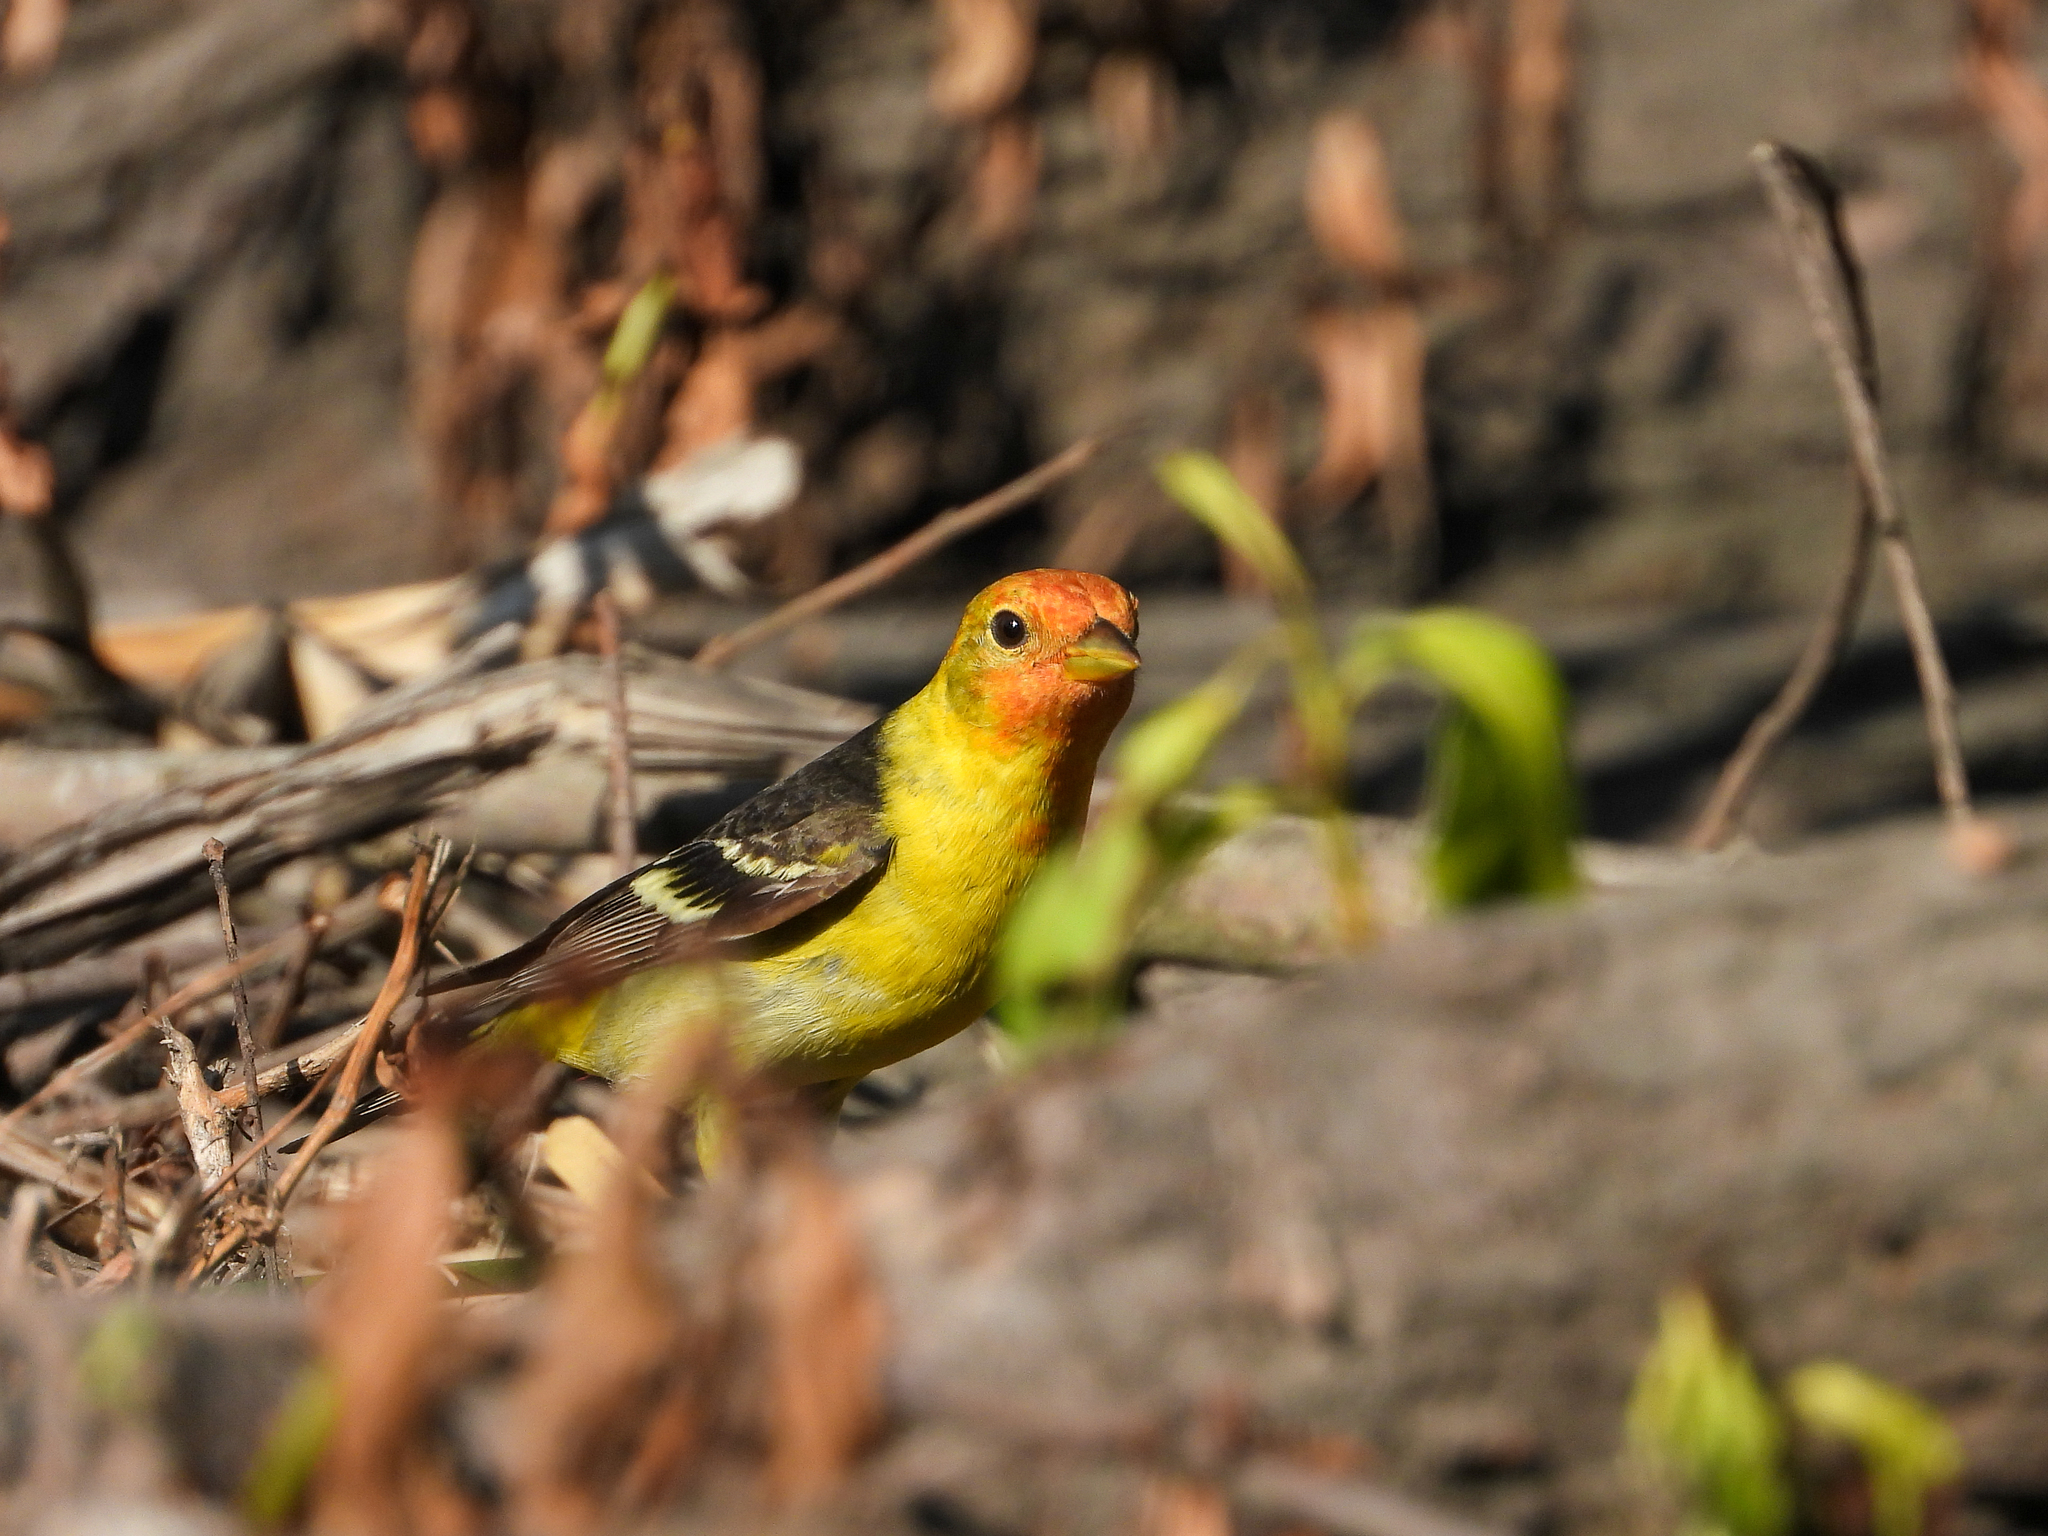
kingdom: Animalia
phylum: Chordata
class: Aves
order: Passeriformes
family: Cardinalidae
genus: Piranga
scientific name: Piranga ludoviciana
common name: Western tanager
